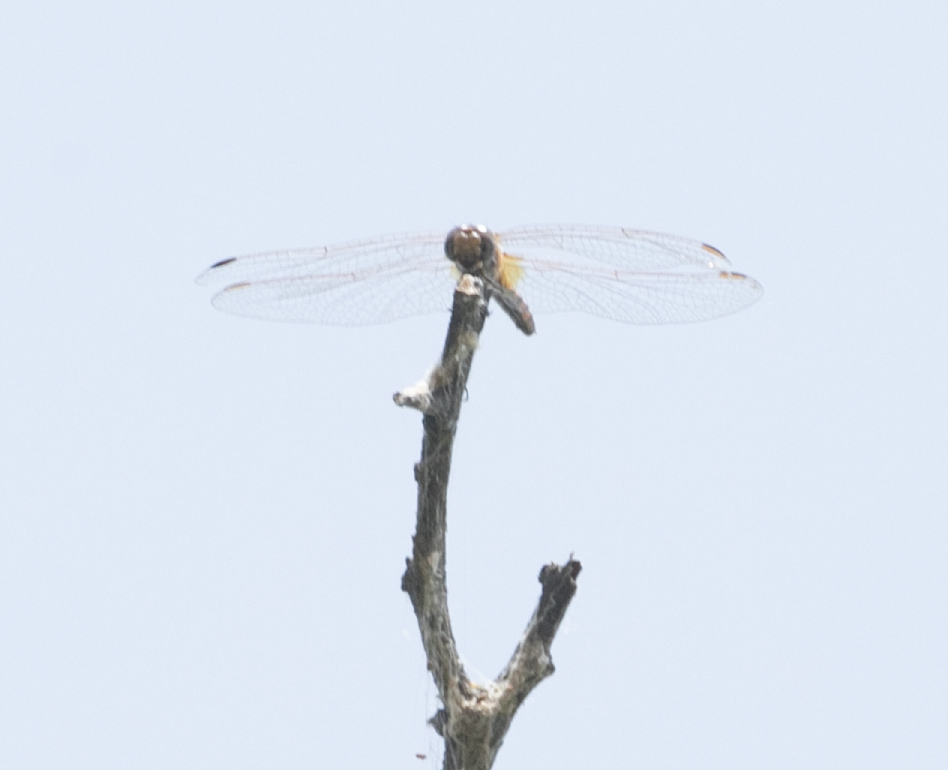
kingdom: Animalia
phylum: Arthropoda
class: Insecta
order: Odonata
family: Libellulidae
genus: Trithemis
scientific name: Trithemis annulata
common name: Violet dropwing
